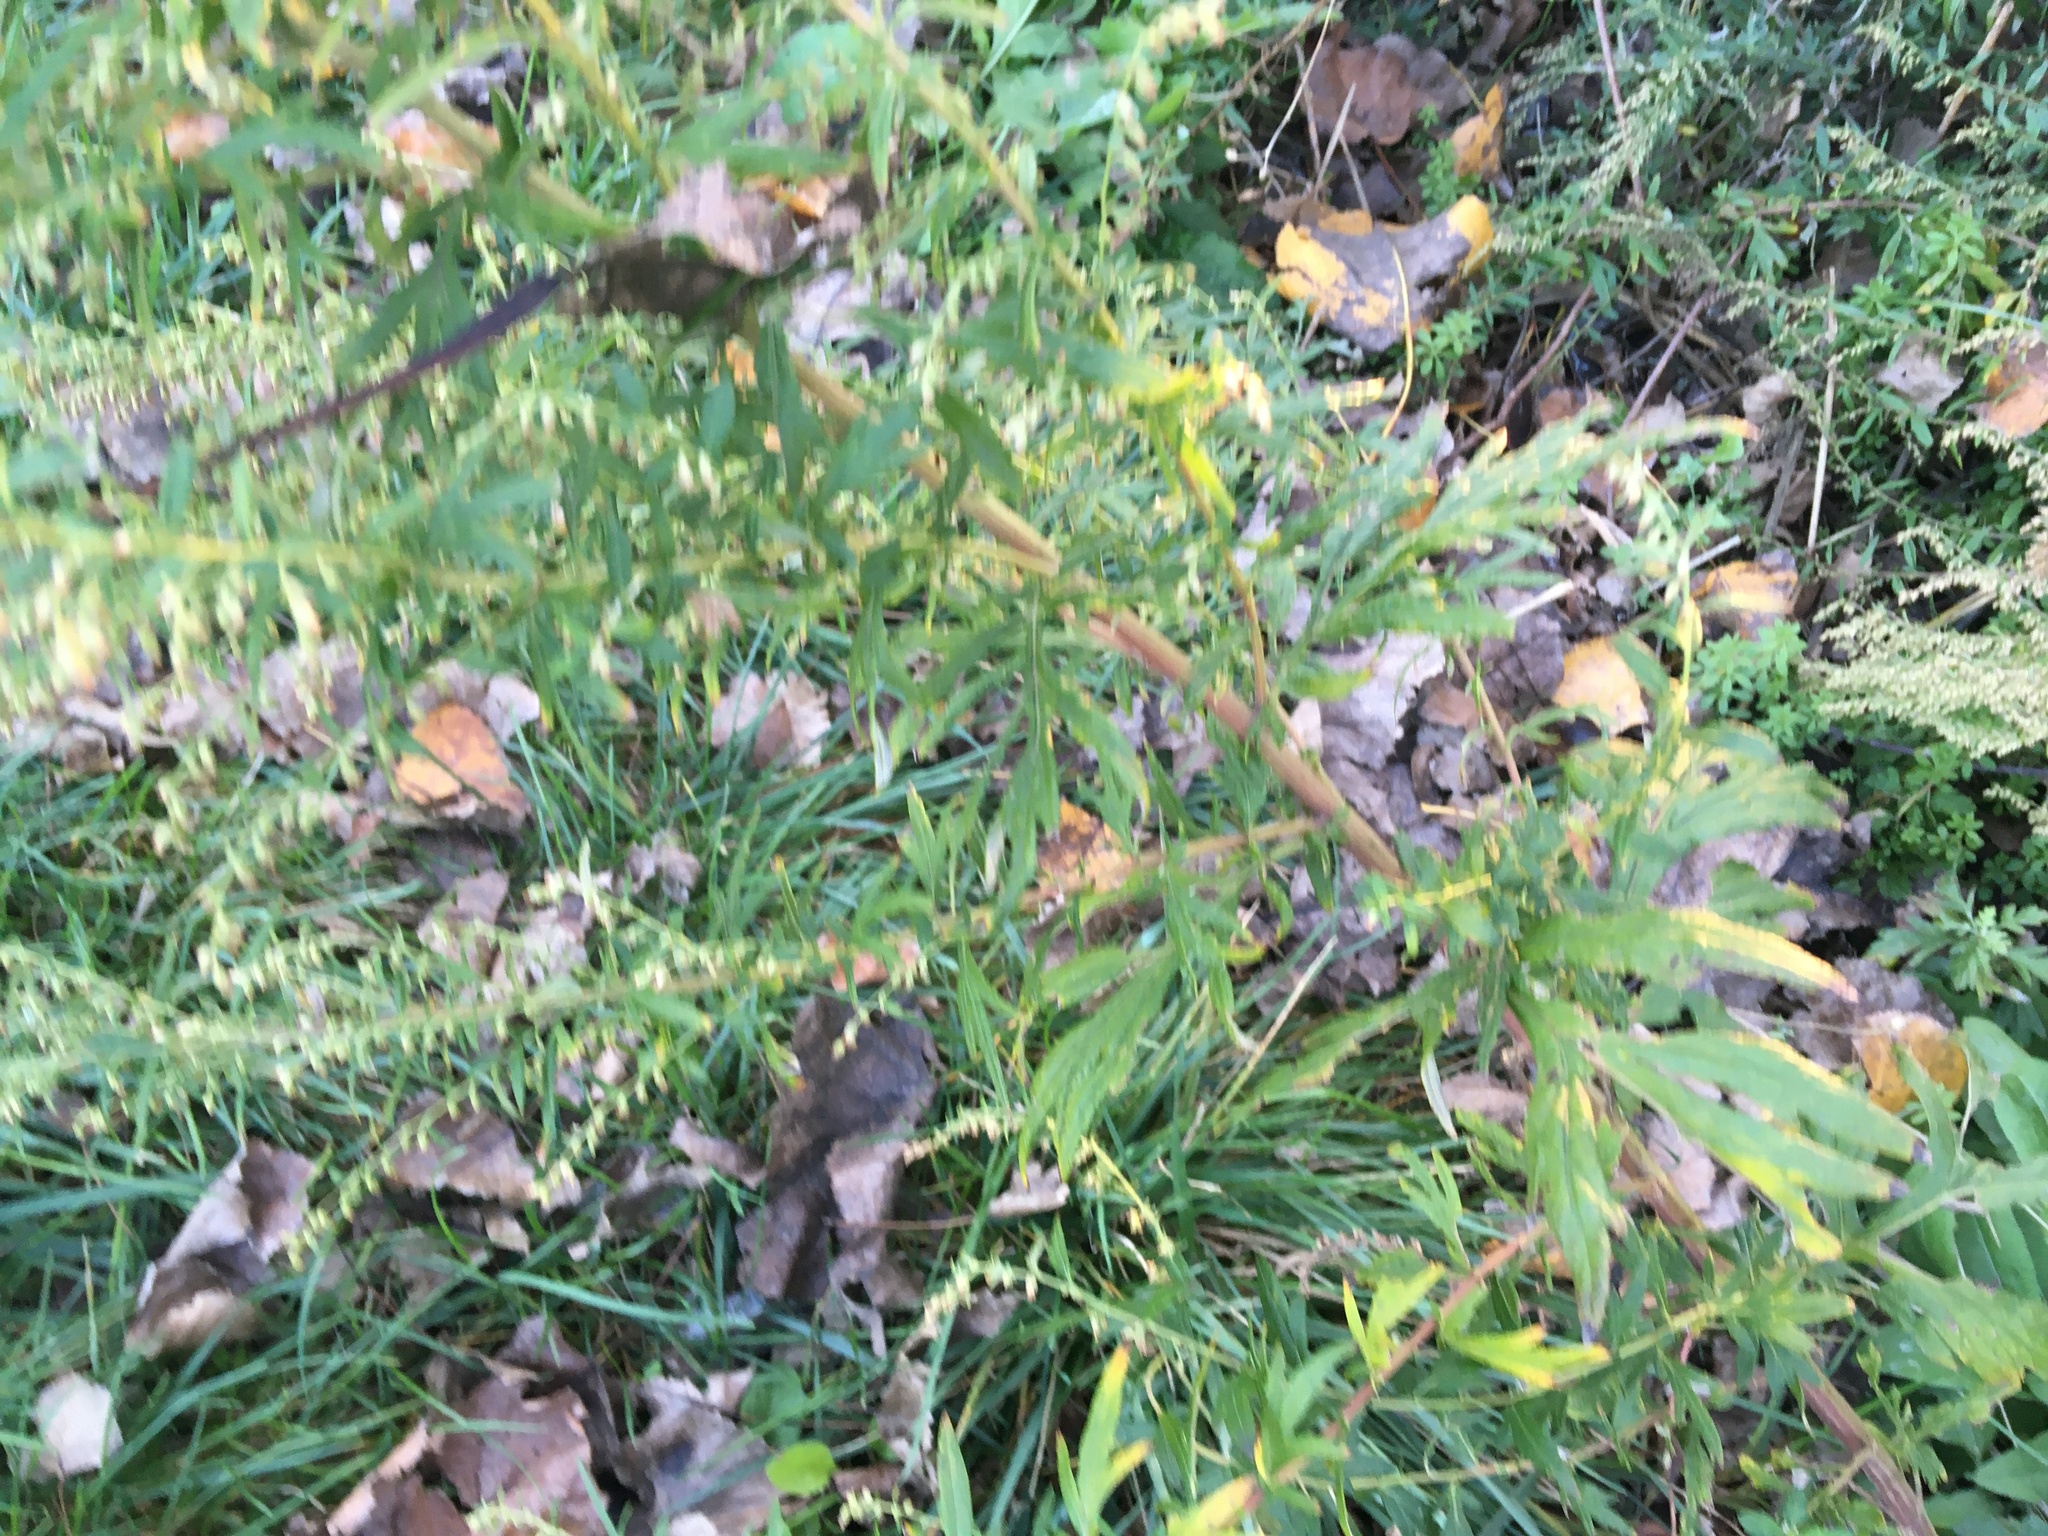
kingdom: Plantae
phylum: Tracheophyta
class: Magnoliopsida
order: Asterales
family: Asteraceae
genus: Artemisia
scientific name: Artemisia vulgaris
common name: Mugwort
